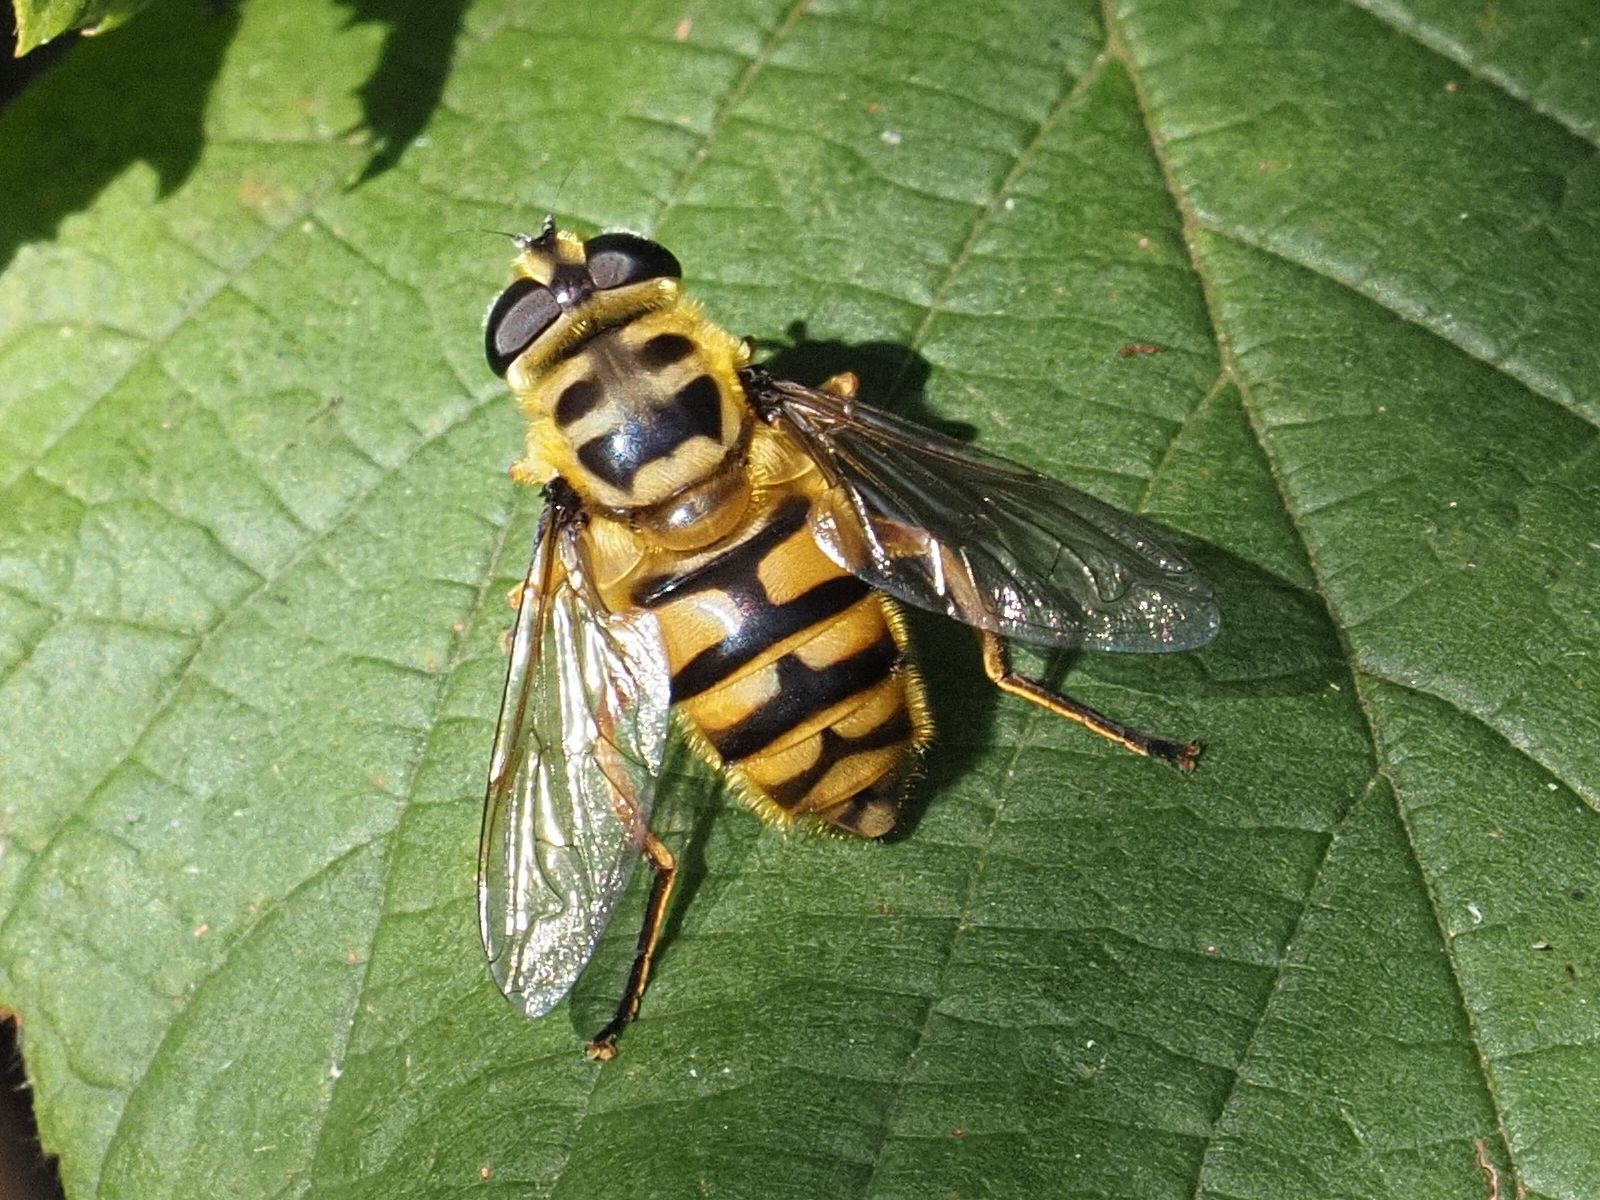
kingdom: Animalia
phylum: Arthropoda
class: Insecta
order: Diptera
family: Syrphidae
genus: Myathropa
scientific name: Myathropa florea
